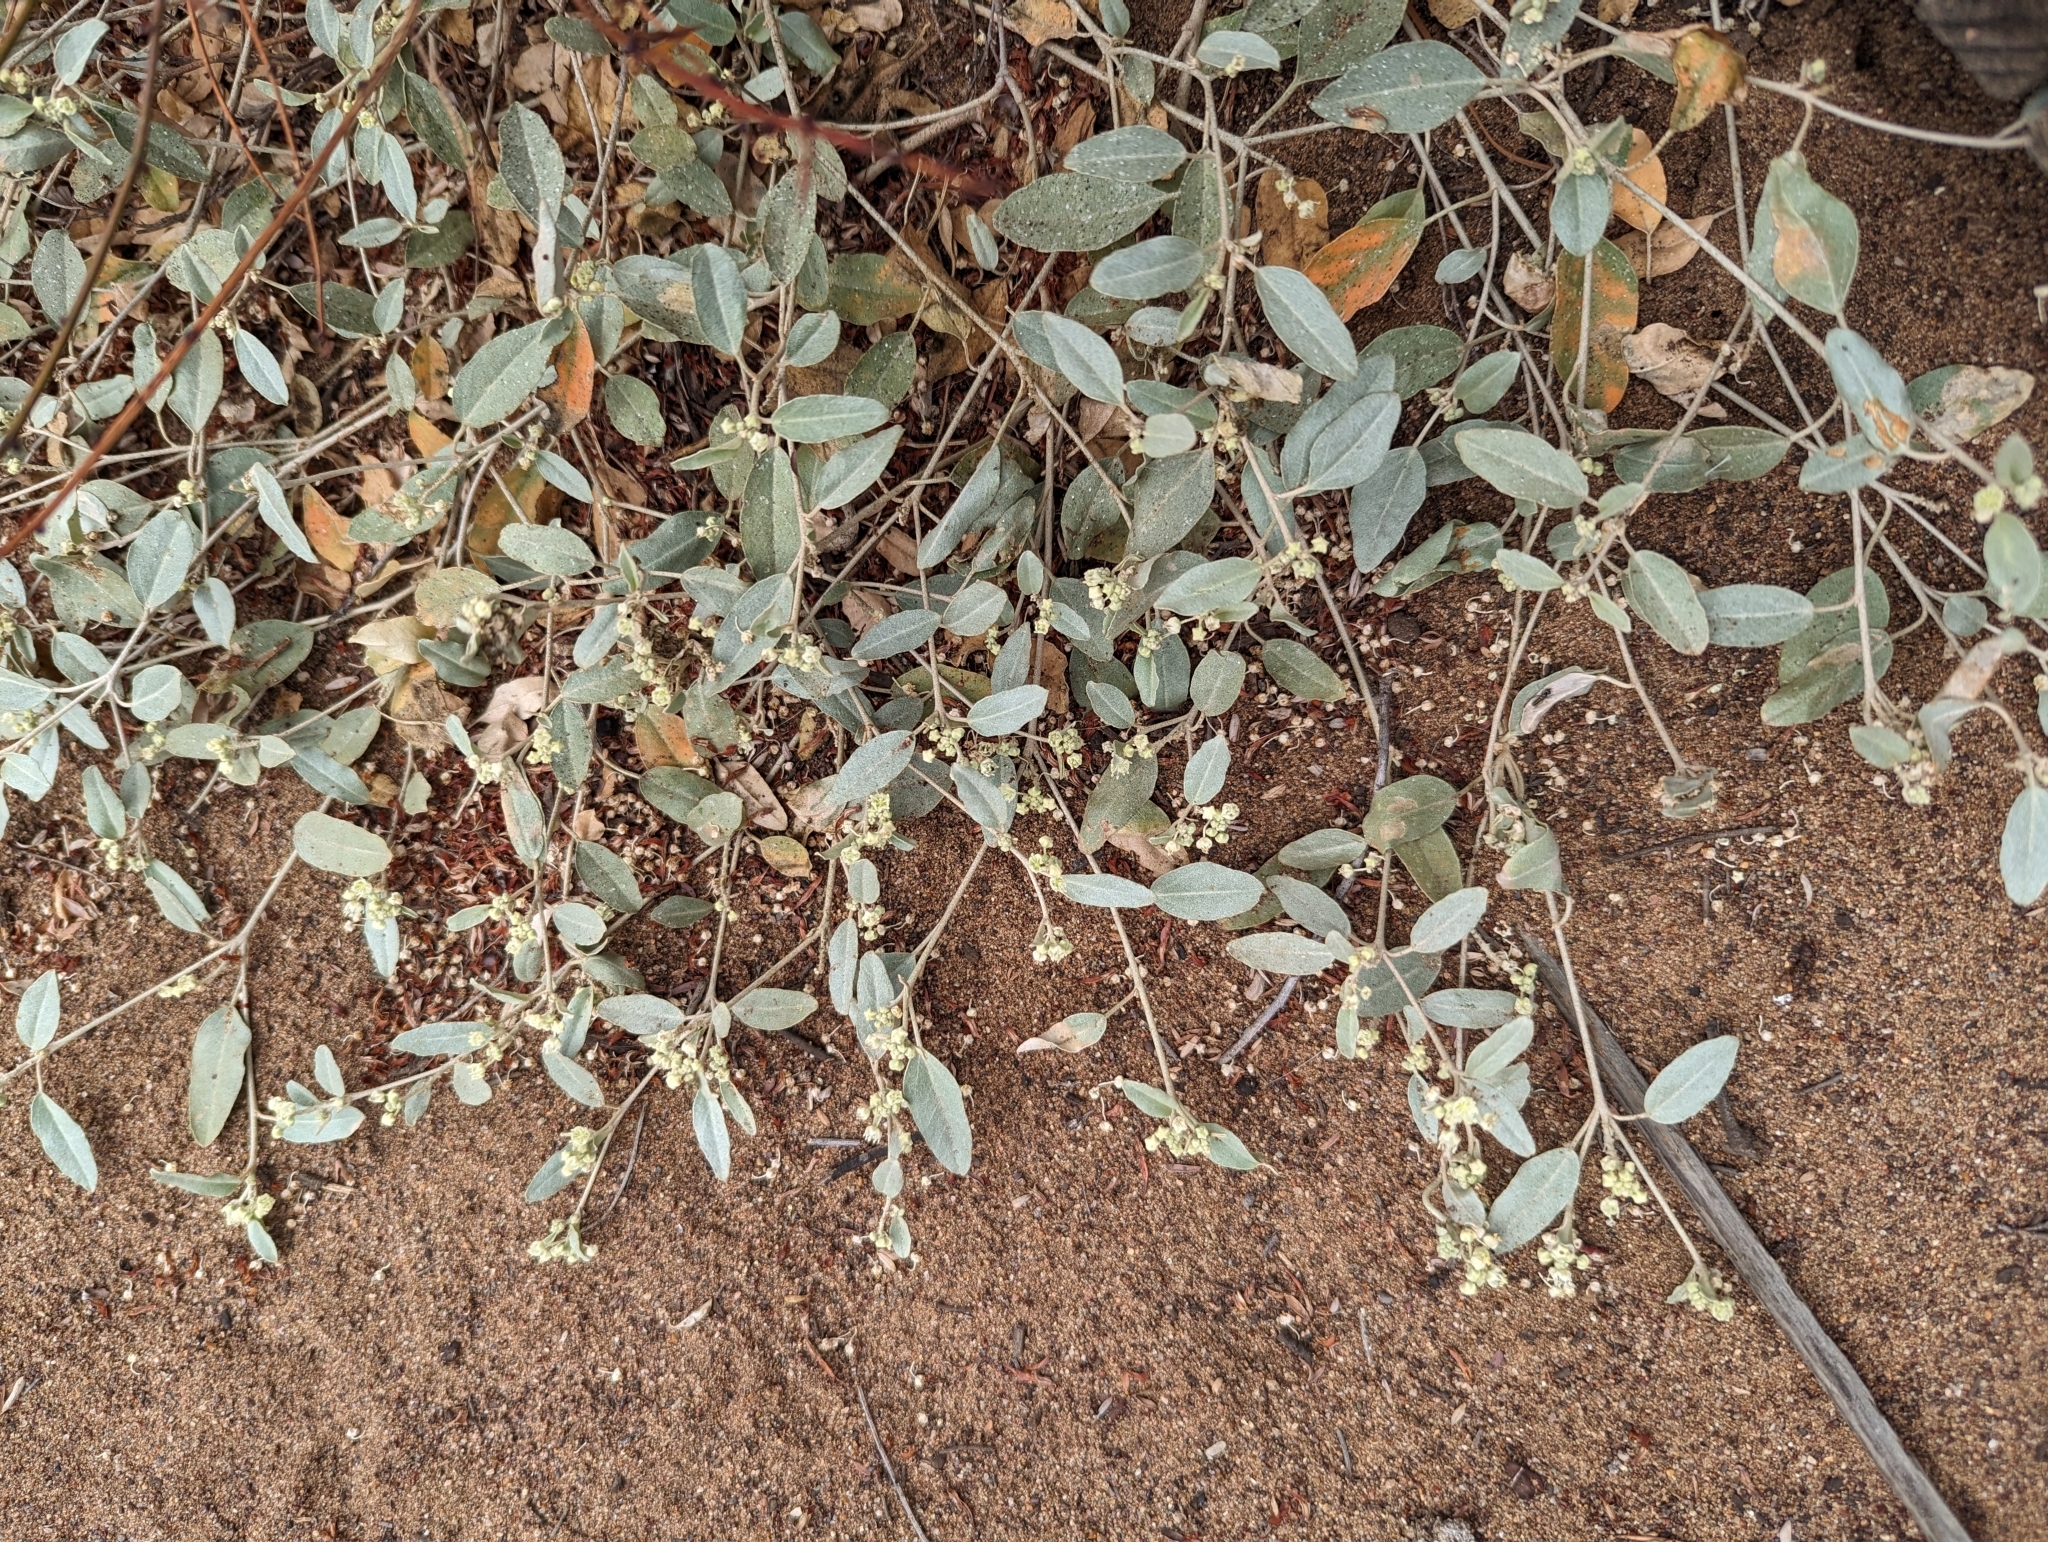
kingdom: Plantae
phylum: Tracheophyta
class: Magnoliopsida
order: Malpighiales
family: Euphorbiaceae
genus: Croton
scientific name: Croton californicus
